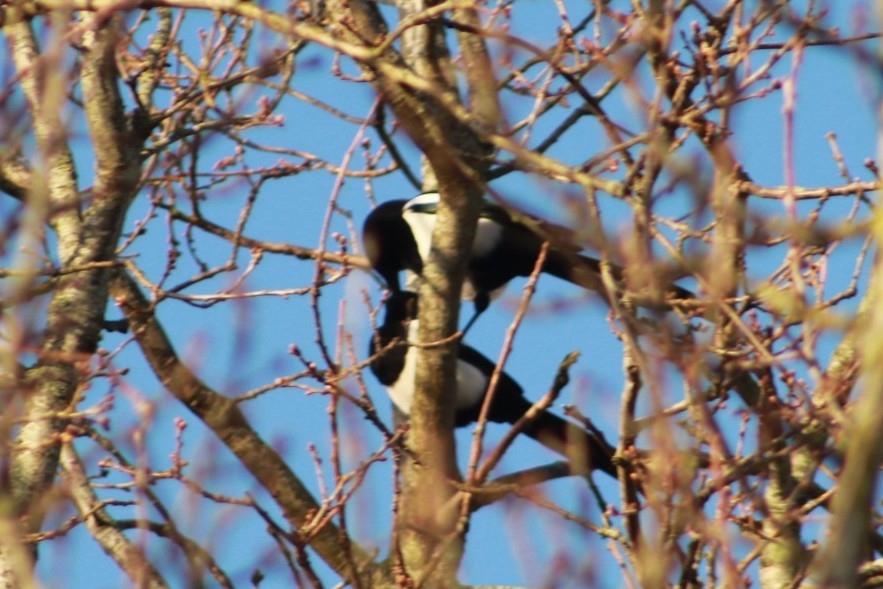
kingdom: Animalia
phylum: Chordata
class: Aves
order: Passeriformes
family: Corvidae
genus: Pica
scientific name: Pica pica
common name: Eurasian magpie
